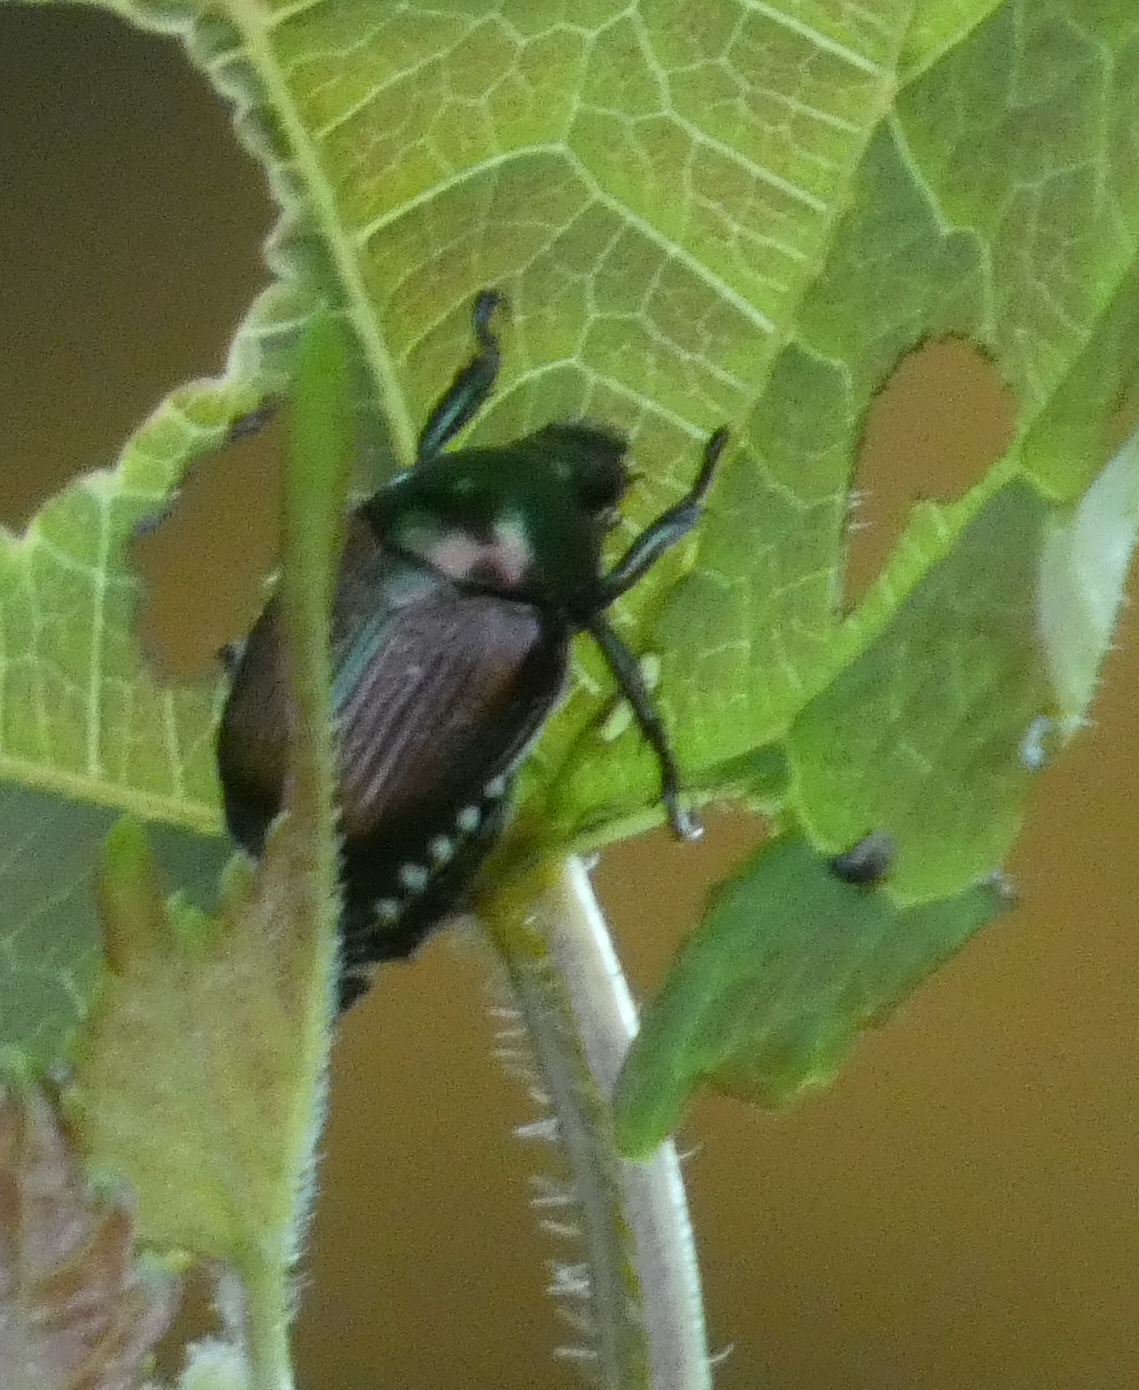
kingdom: Animalia
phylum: Arthropoda
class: Insecta
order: Coleoptera
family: Scarabaeidae
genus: Popillia
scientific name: Popillia japonica
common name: Japanese beetle
